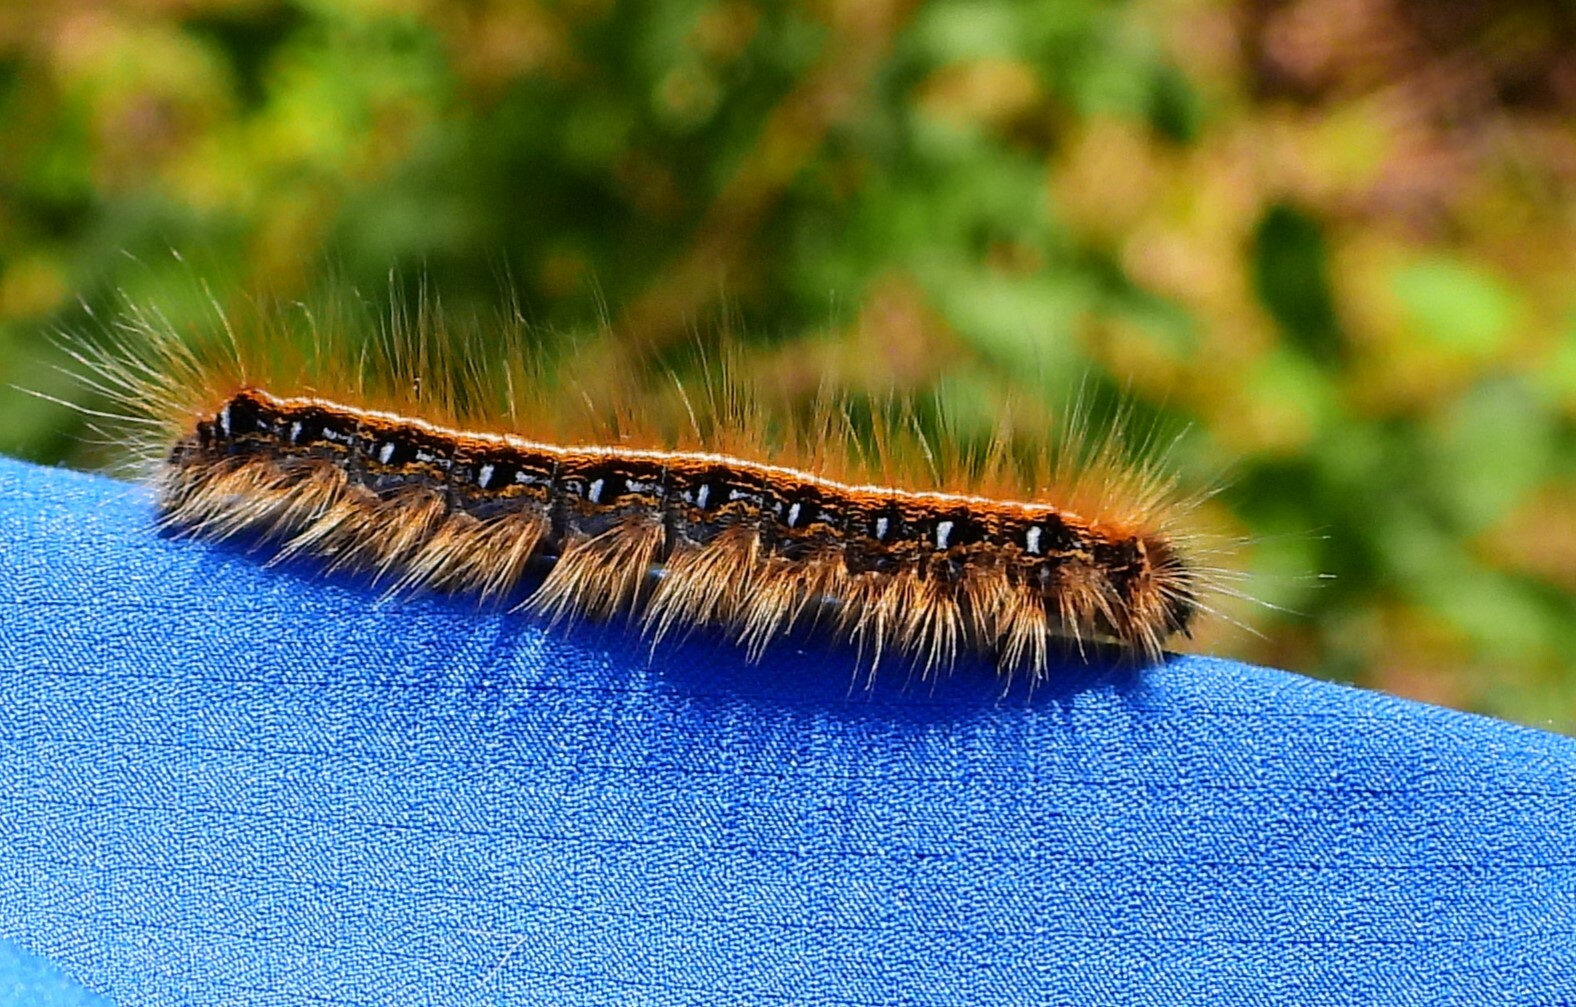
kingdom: Animalia
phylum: Arthropoda
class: Insecta
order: Lepidoptera
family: Lasiocampidae
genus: Malacosoma
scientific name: Malacosoma americana
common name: Eastern tent caterpillar moth
